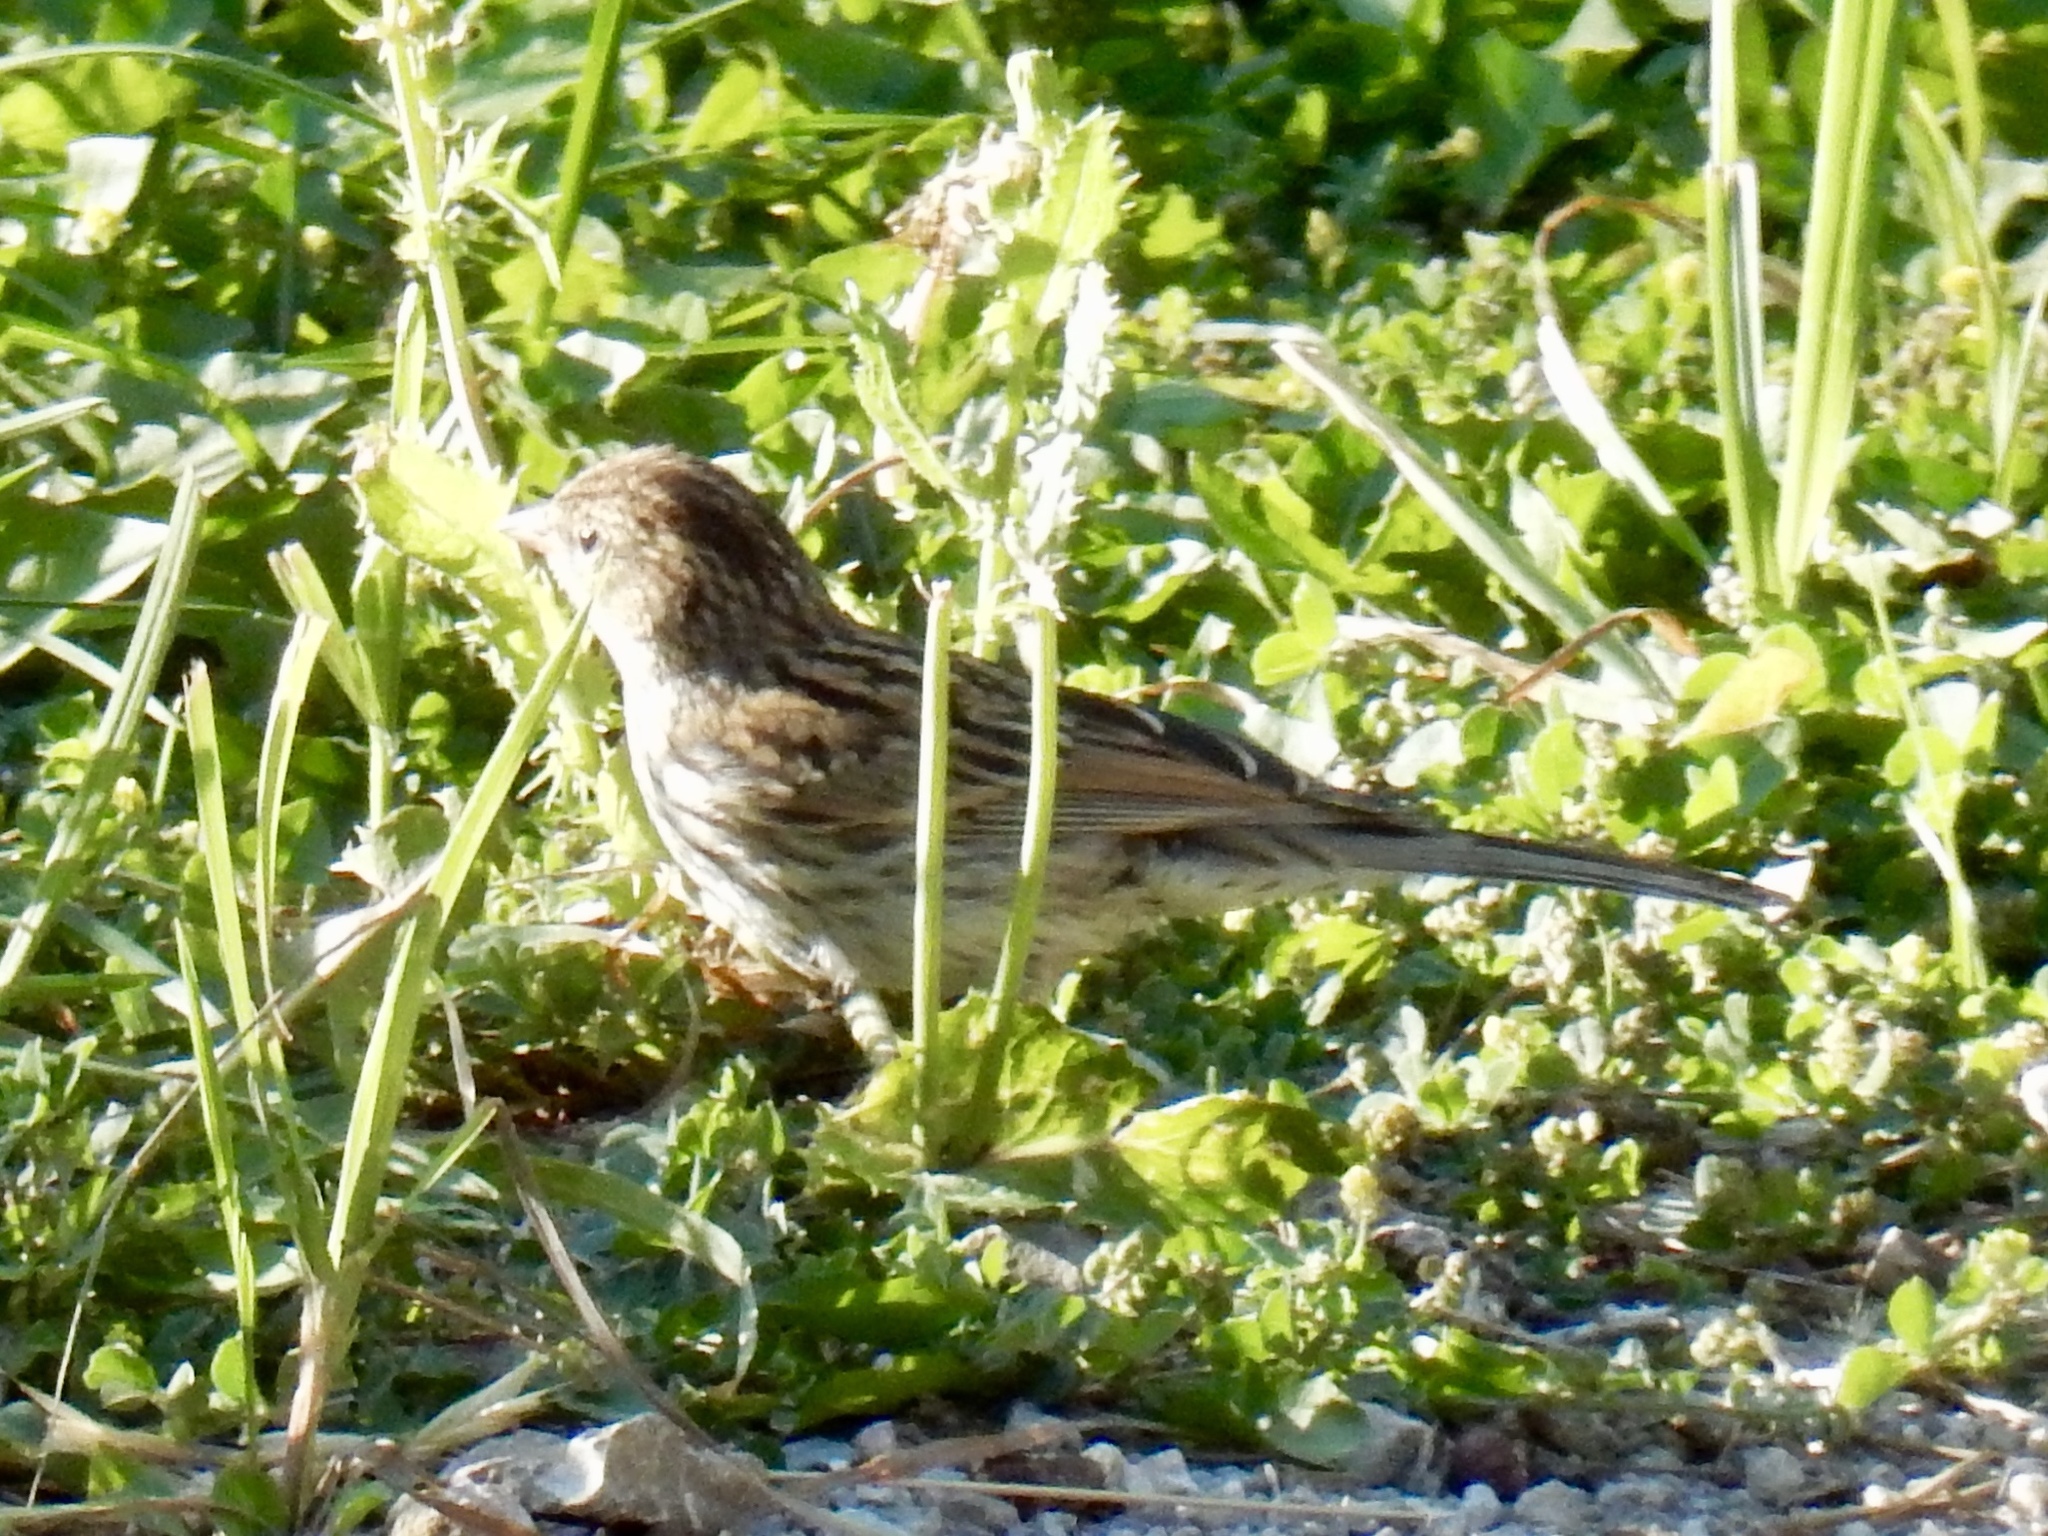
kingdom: Animalia
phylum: Chordata
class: Aves
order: Passeriformes
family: Passerellidae
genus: Spizella
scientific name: Spizella passerina
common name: Chipping sparrow
